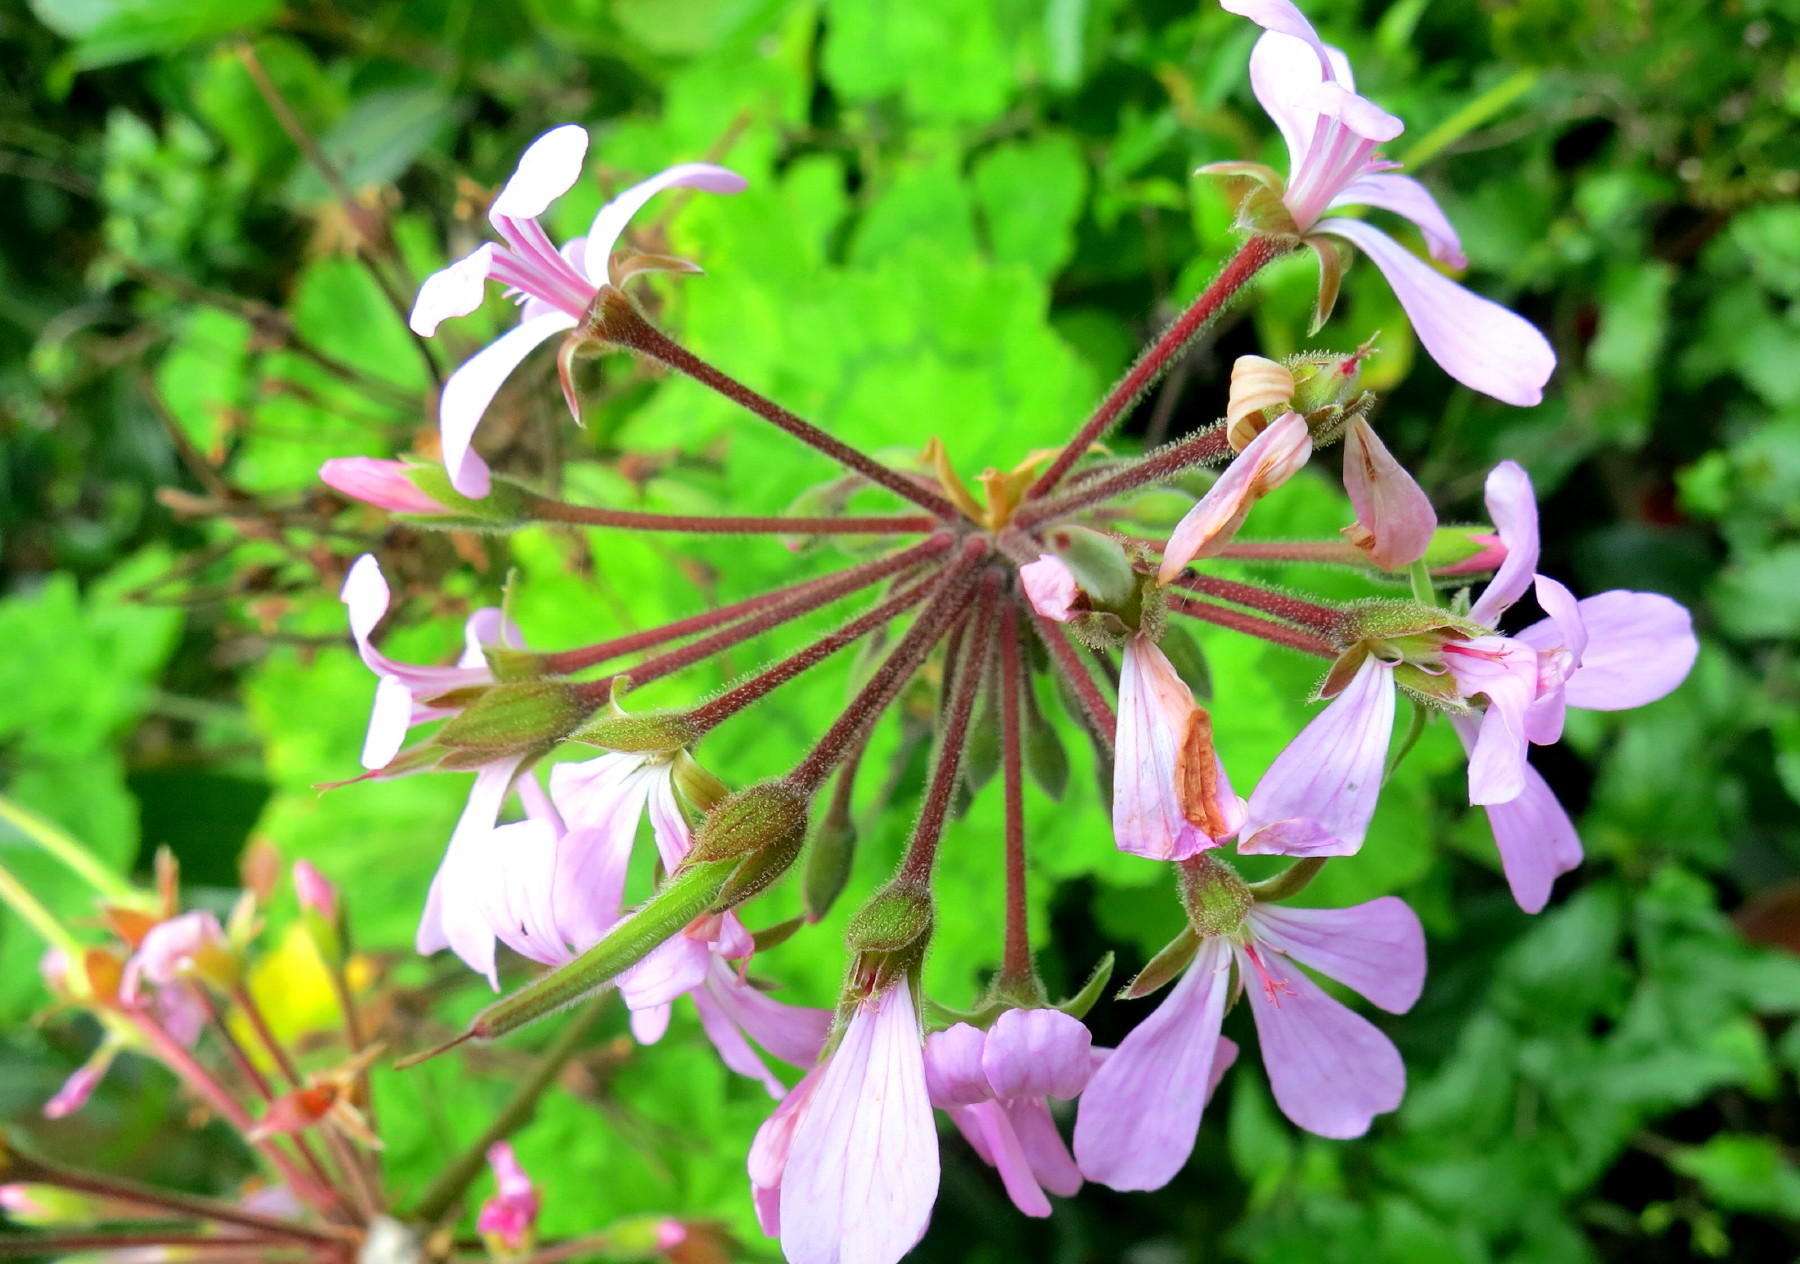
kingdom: Plantae
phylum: Tracheophyta
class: Magnoliopsida
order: Geraniales
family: Geraniaceae
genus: Pelargonium
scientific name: Pelargonium zonale
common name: Horseshoe geranium
